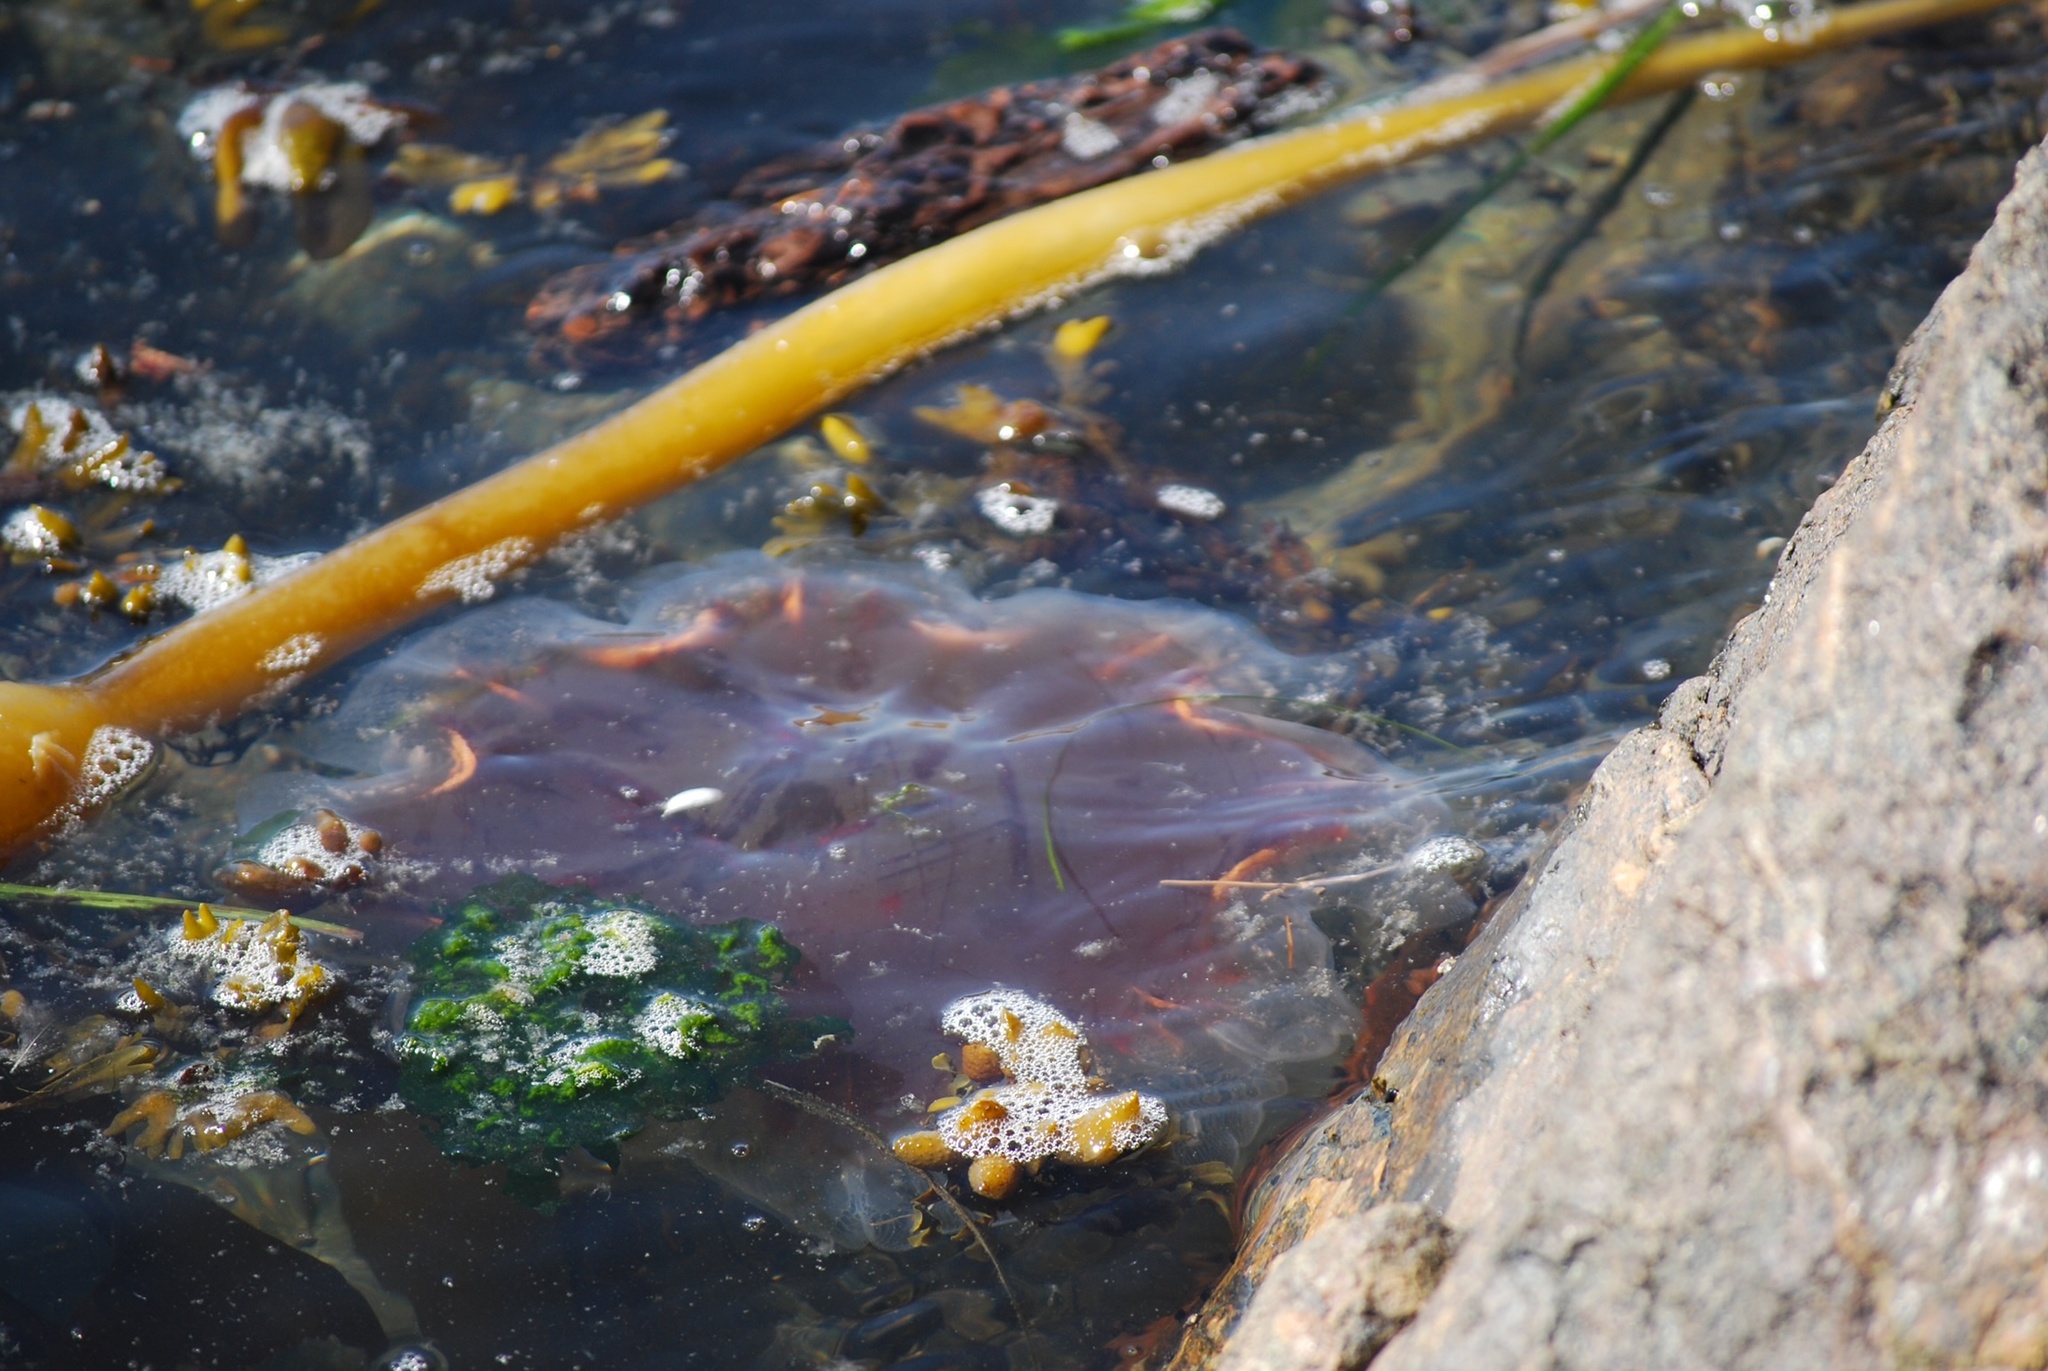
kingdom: Animalia
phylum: Cnidaria
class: Scyphozoa
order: Semaeostomeae
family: Cyaneidae
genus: Cyanea
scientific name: Cyanea ferruginea
